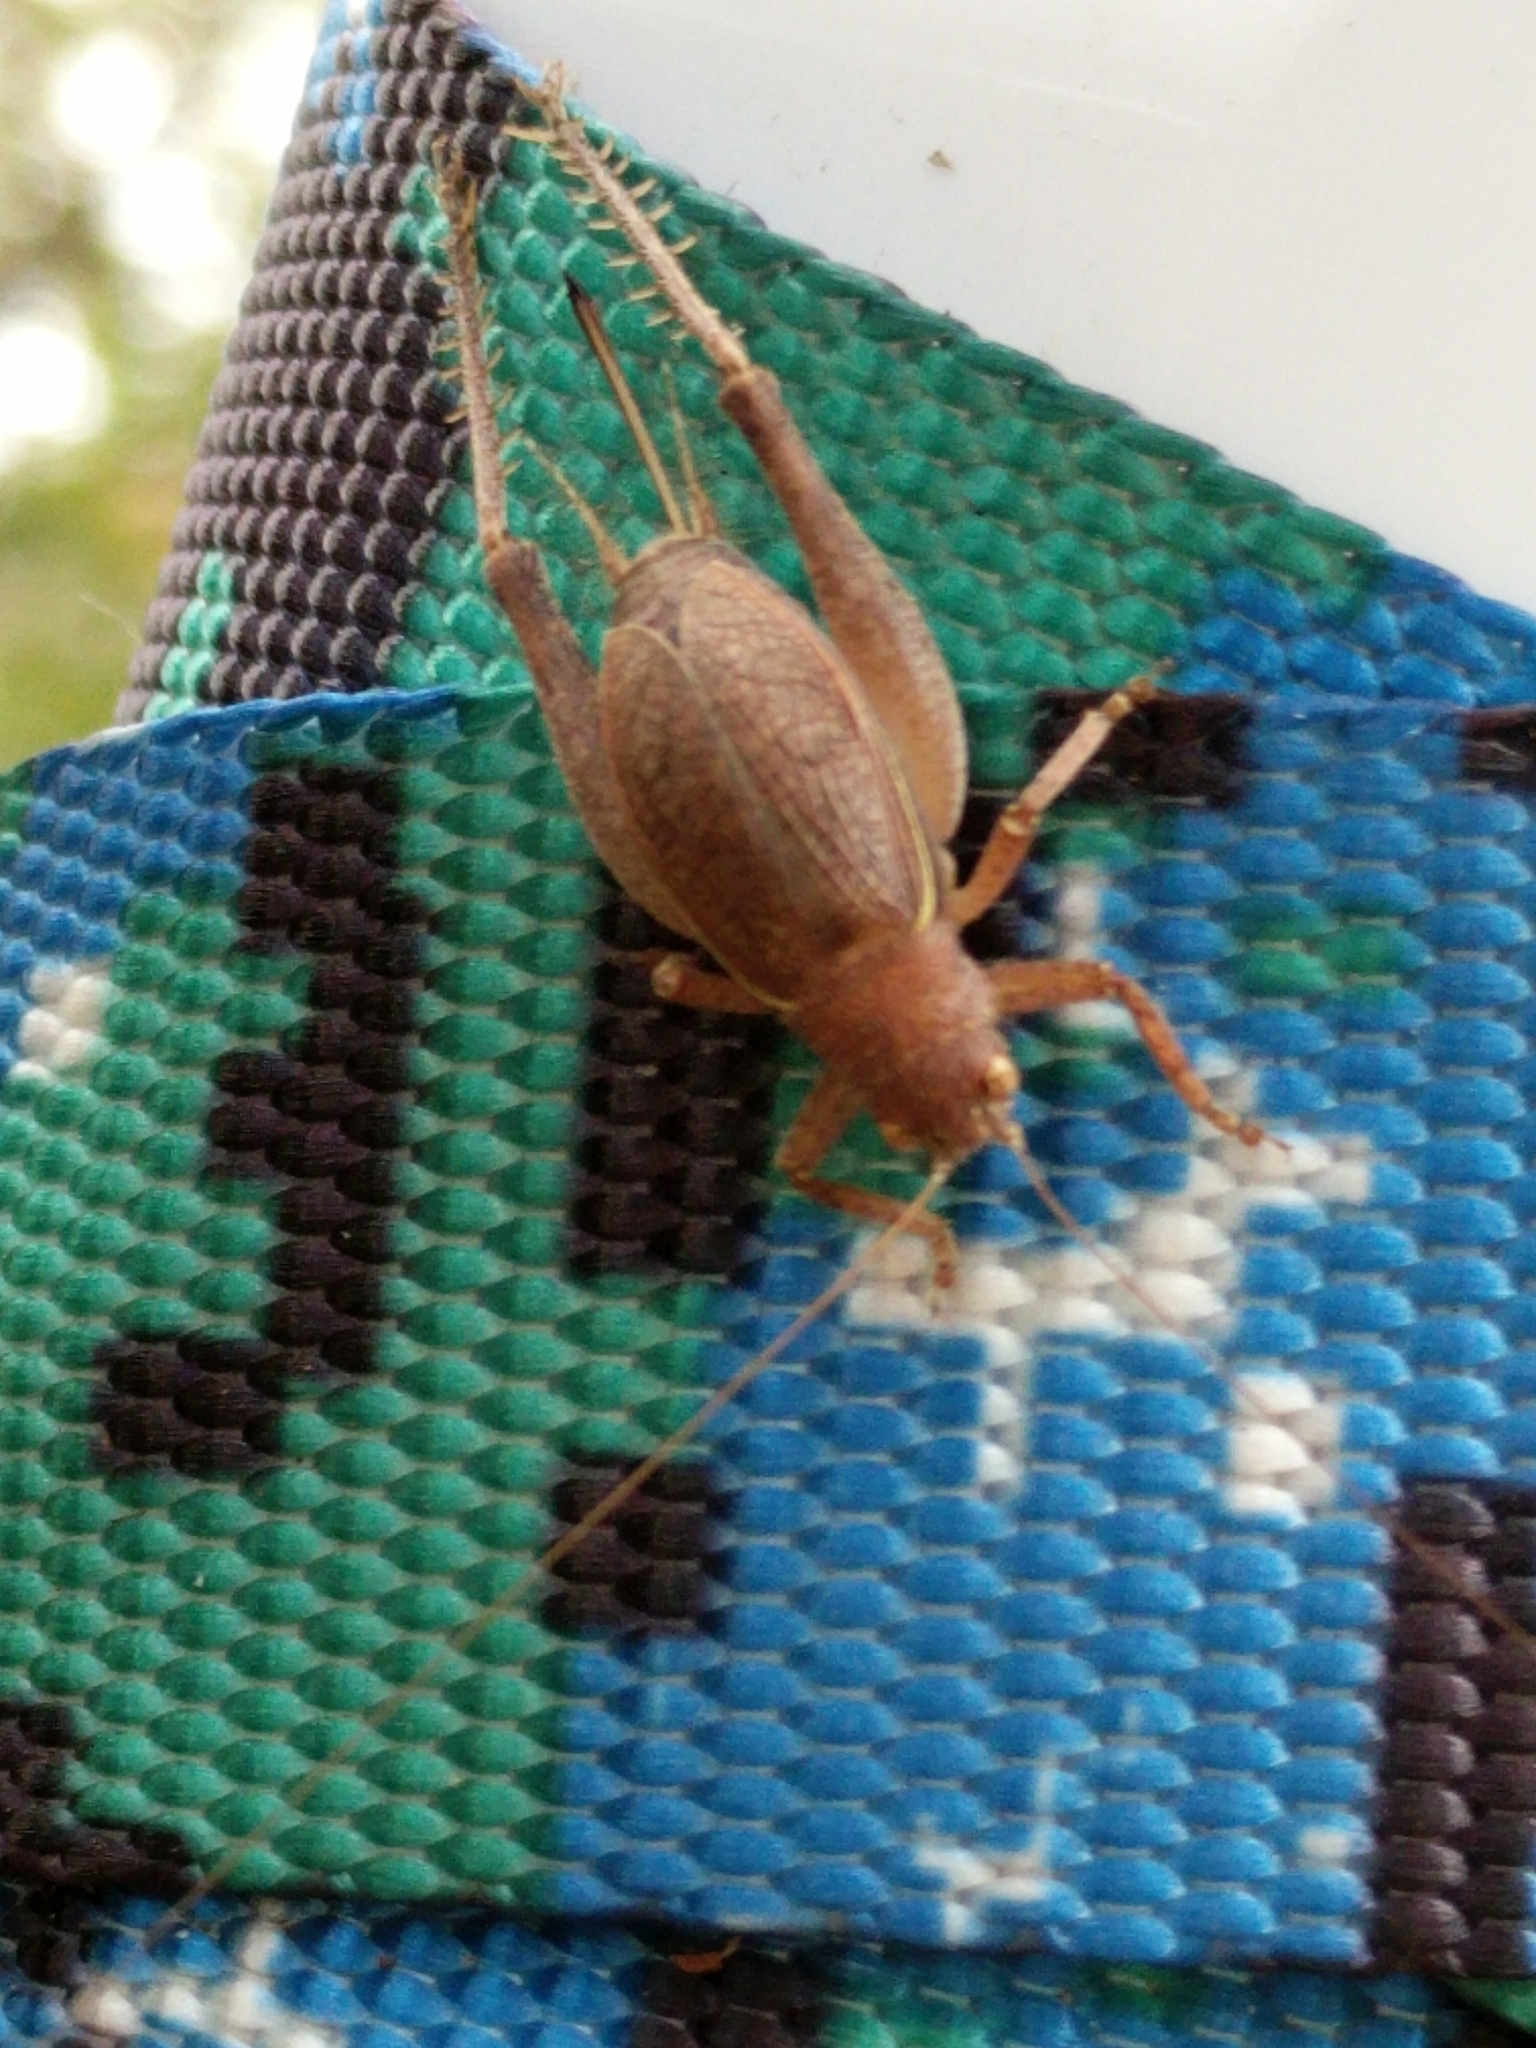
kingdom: Animalia
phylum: Arthropoda
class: Insecta
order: Orthoptera
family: Gryllidae
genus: Hapithus
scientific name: Hapithus agitator
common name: Restless bush cricket
